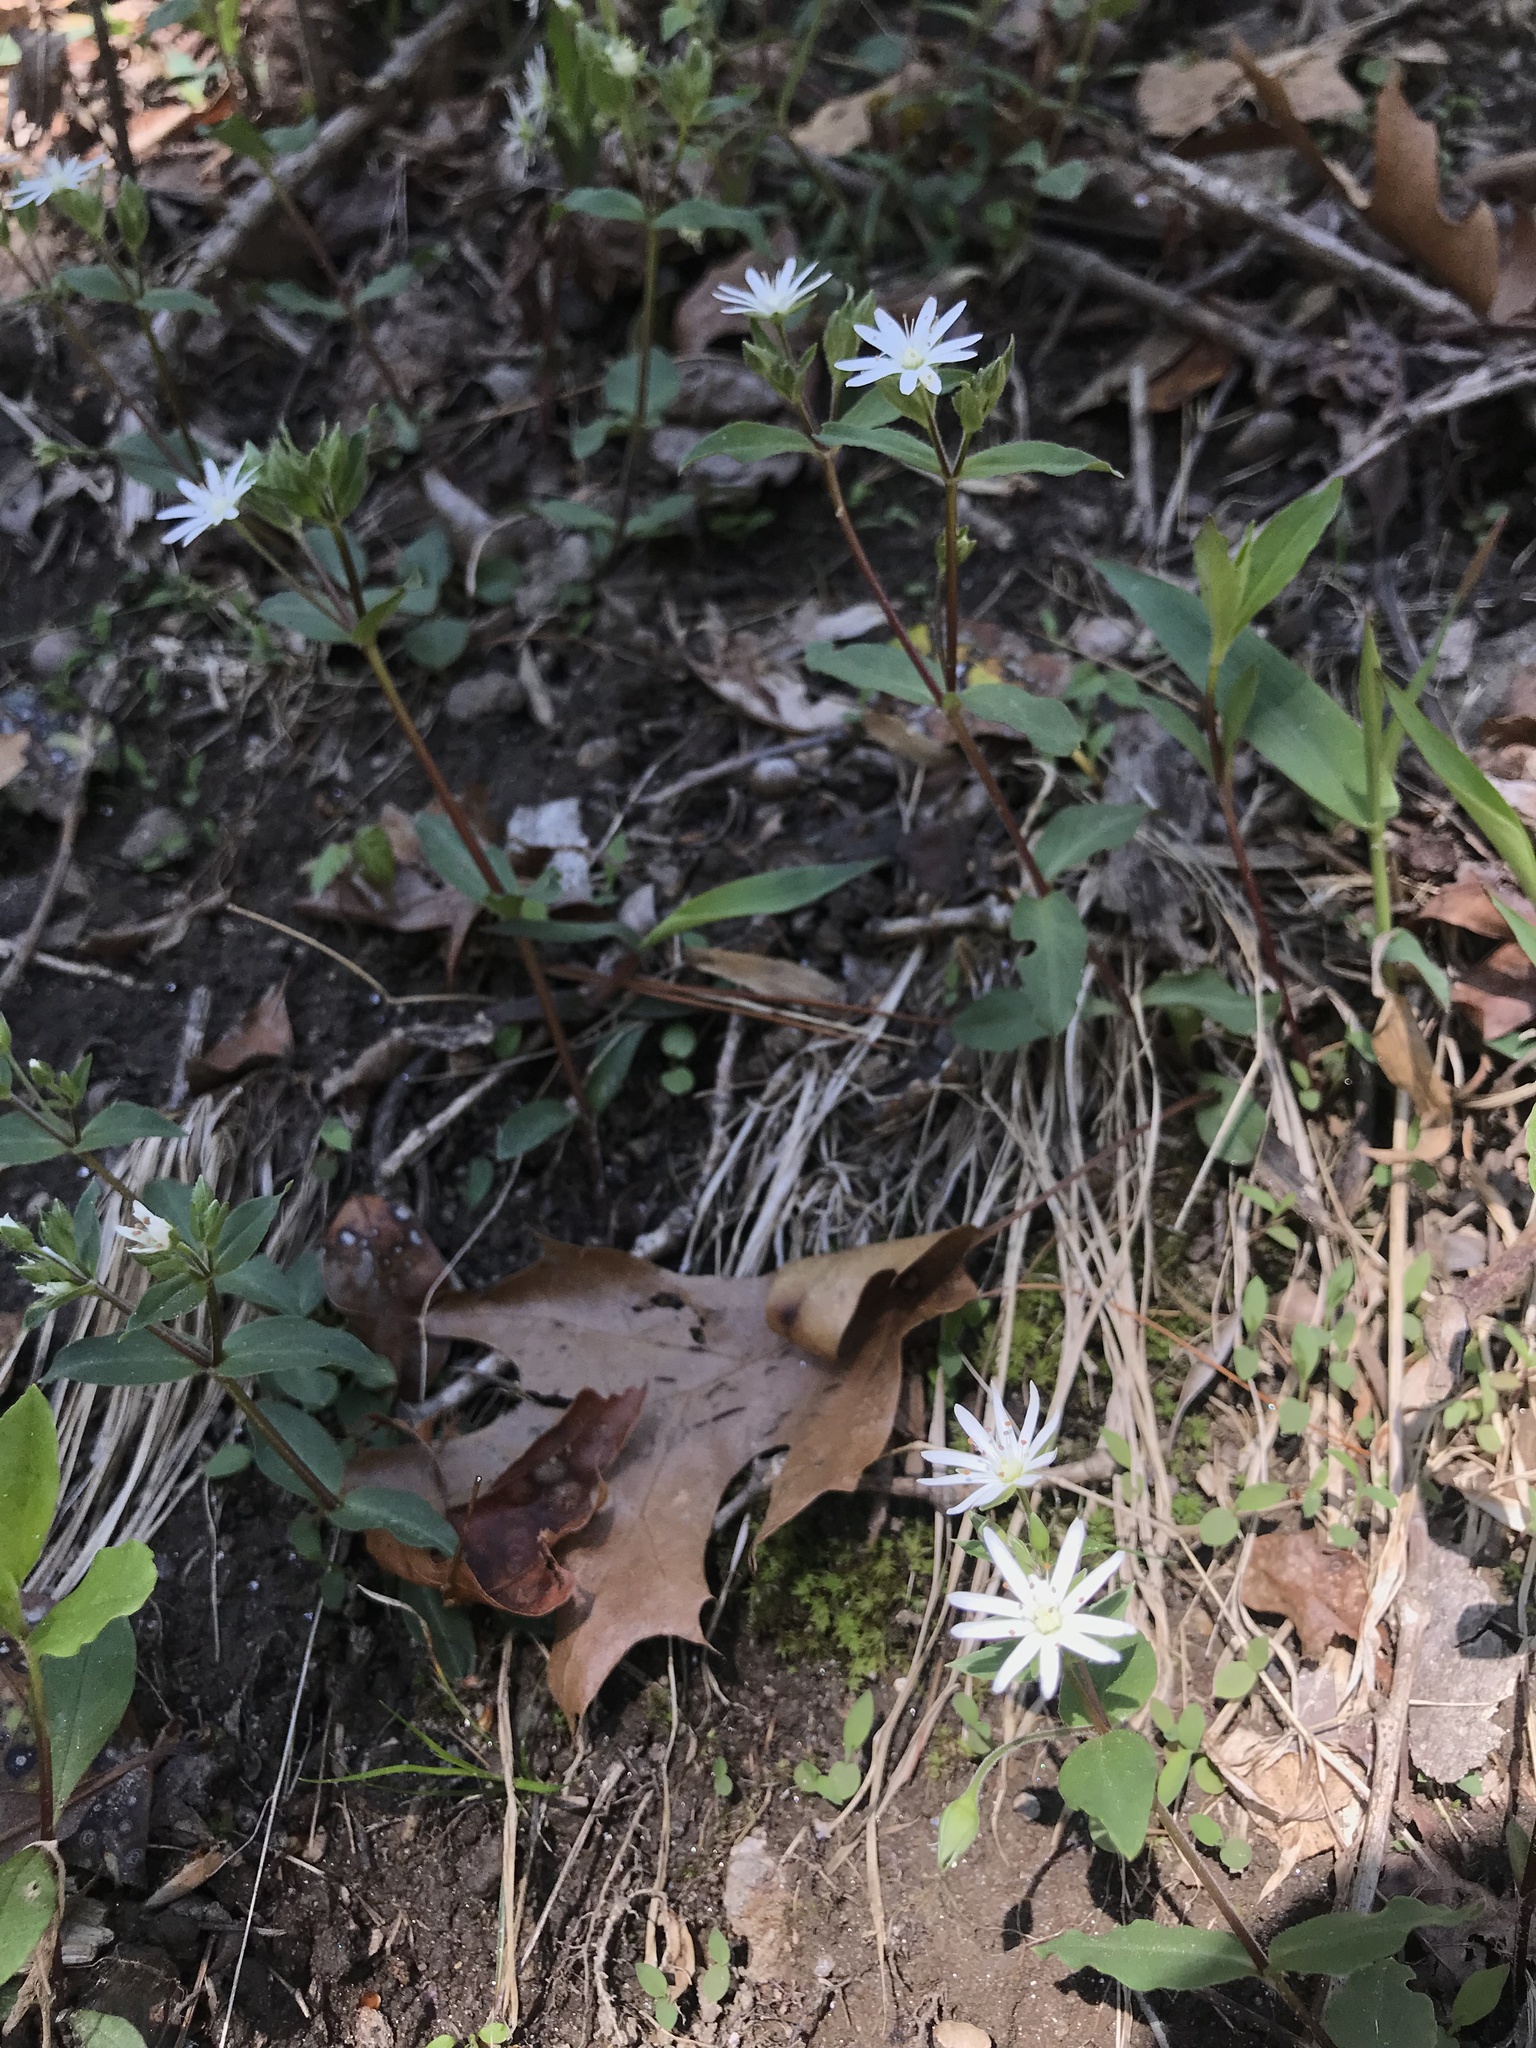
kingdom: Plantae
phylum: Tracheophyta
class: Magnoliopsida
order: Caryophyllales
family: Caryophyllaceae
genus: Stellaria
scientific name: Stellaria pubera
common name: Star chickweed
